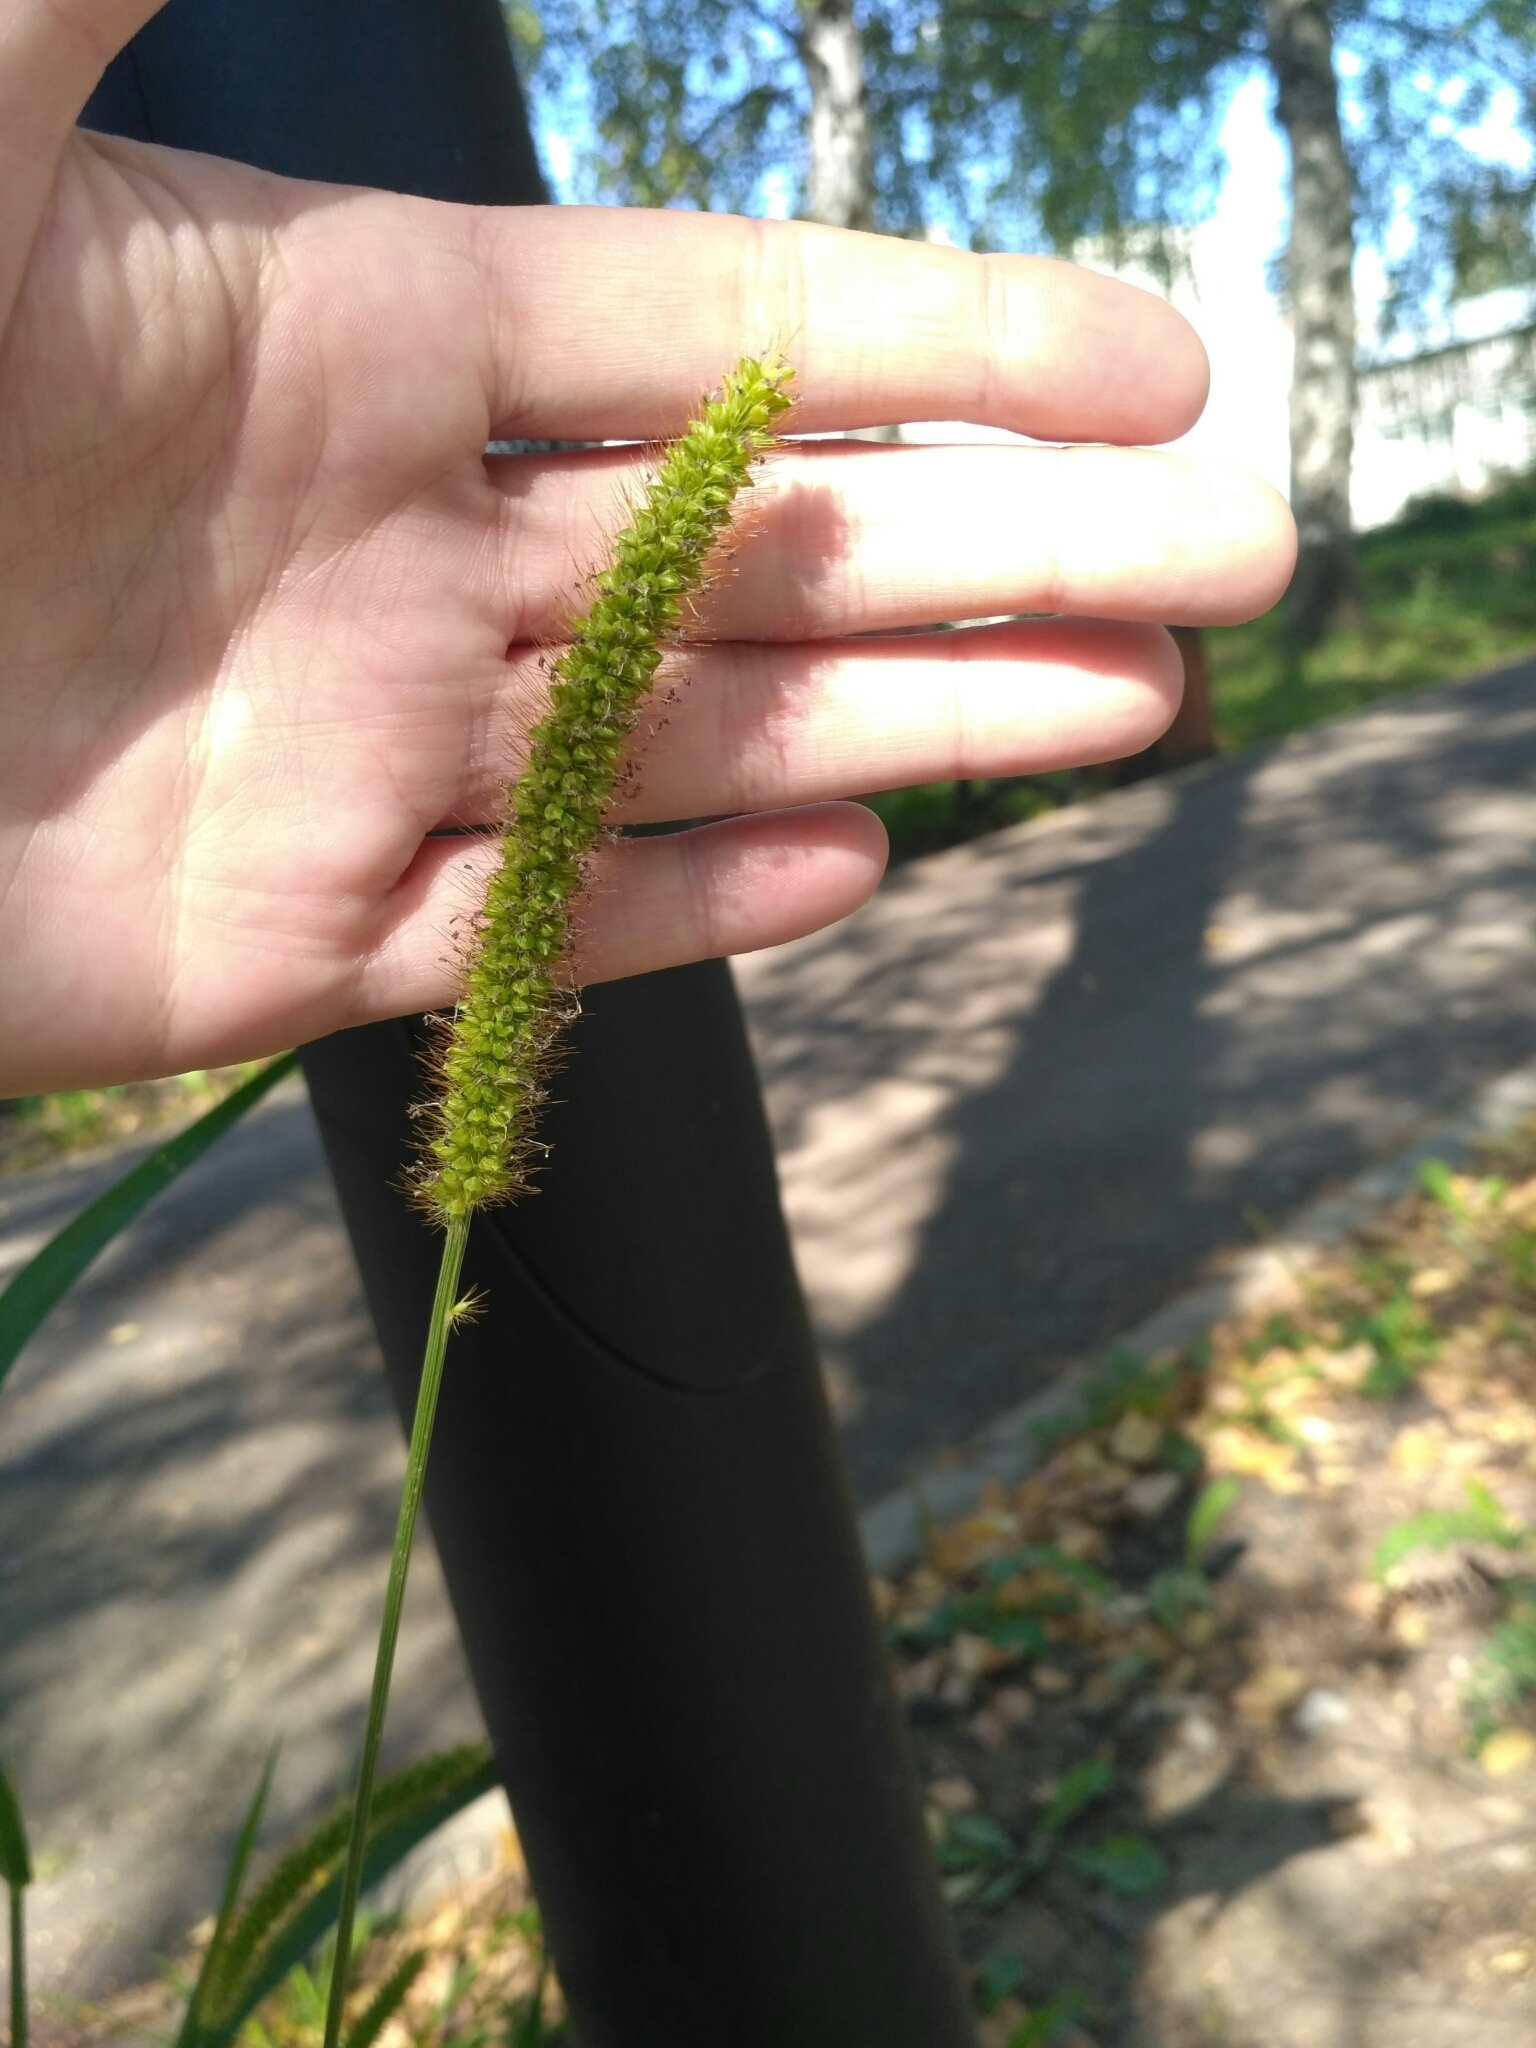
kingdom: Plantae
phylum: Tracheophyta
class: Liliopsida
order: Poales
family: Poaceae
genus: Setaria
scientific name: Setaria pumila
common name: Yellow bristle-grass
